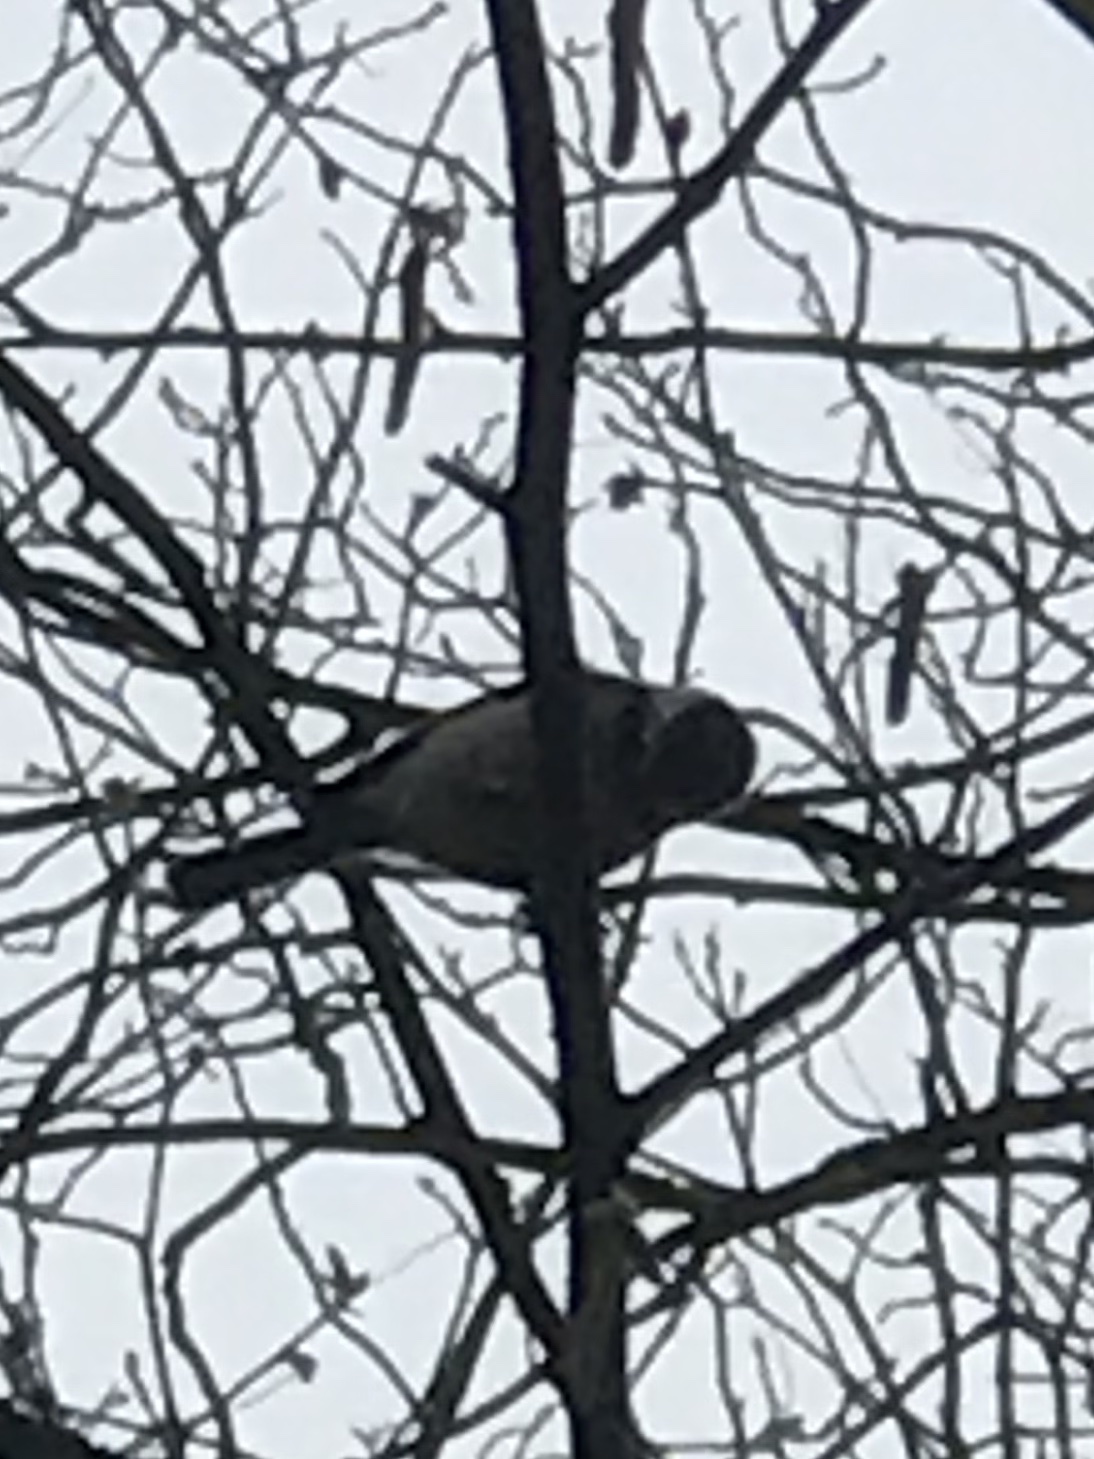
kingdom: Animalia
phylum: Chordata
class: Aves
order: Passeriformes
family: Paridae
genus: Poecile
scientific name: Poecile carolinensis
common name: Carolina chickadee
